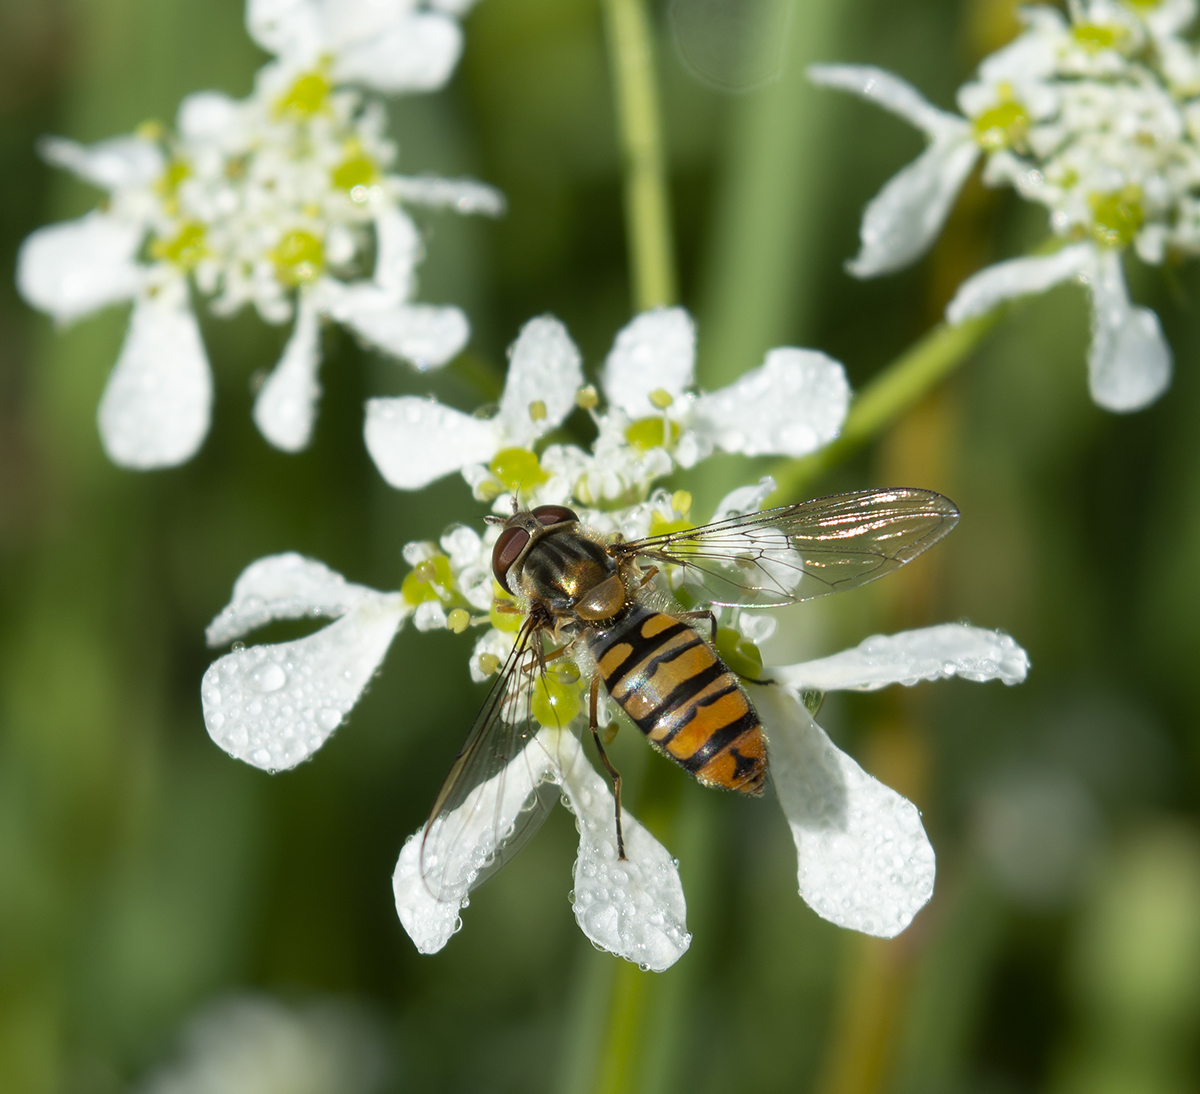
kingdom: Animalia
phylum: Arthropoda
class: Insecta
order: Diptera
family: Syrphidae
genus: Episyrphus
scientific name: Episyrphus balteatus
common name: Marmalade hoverfly
